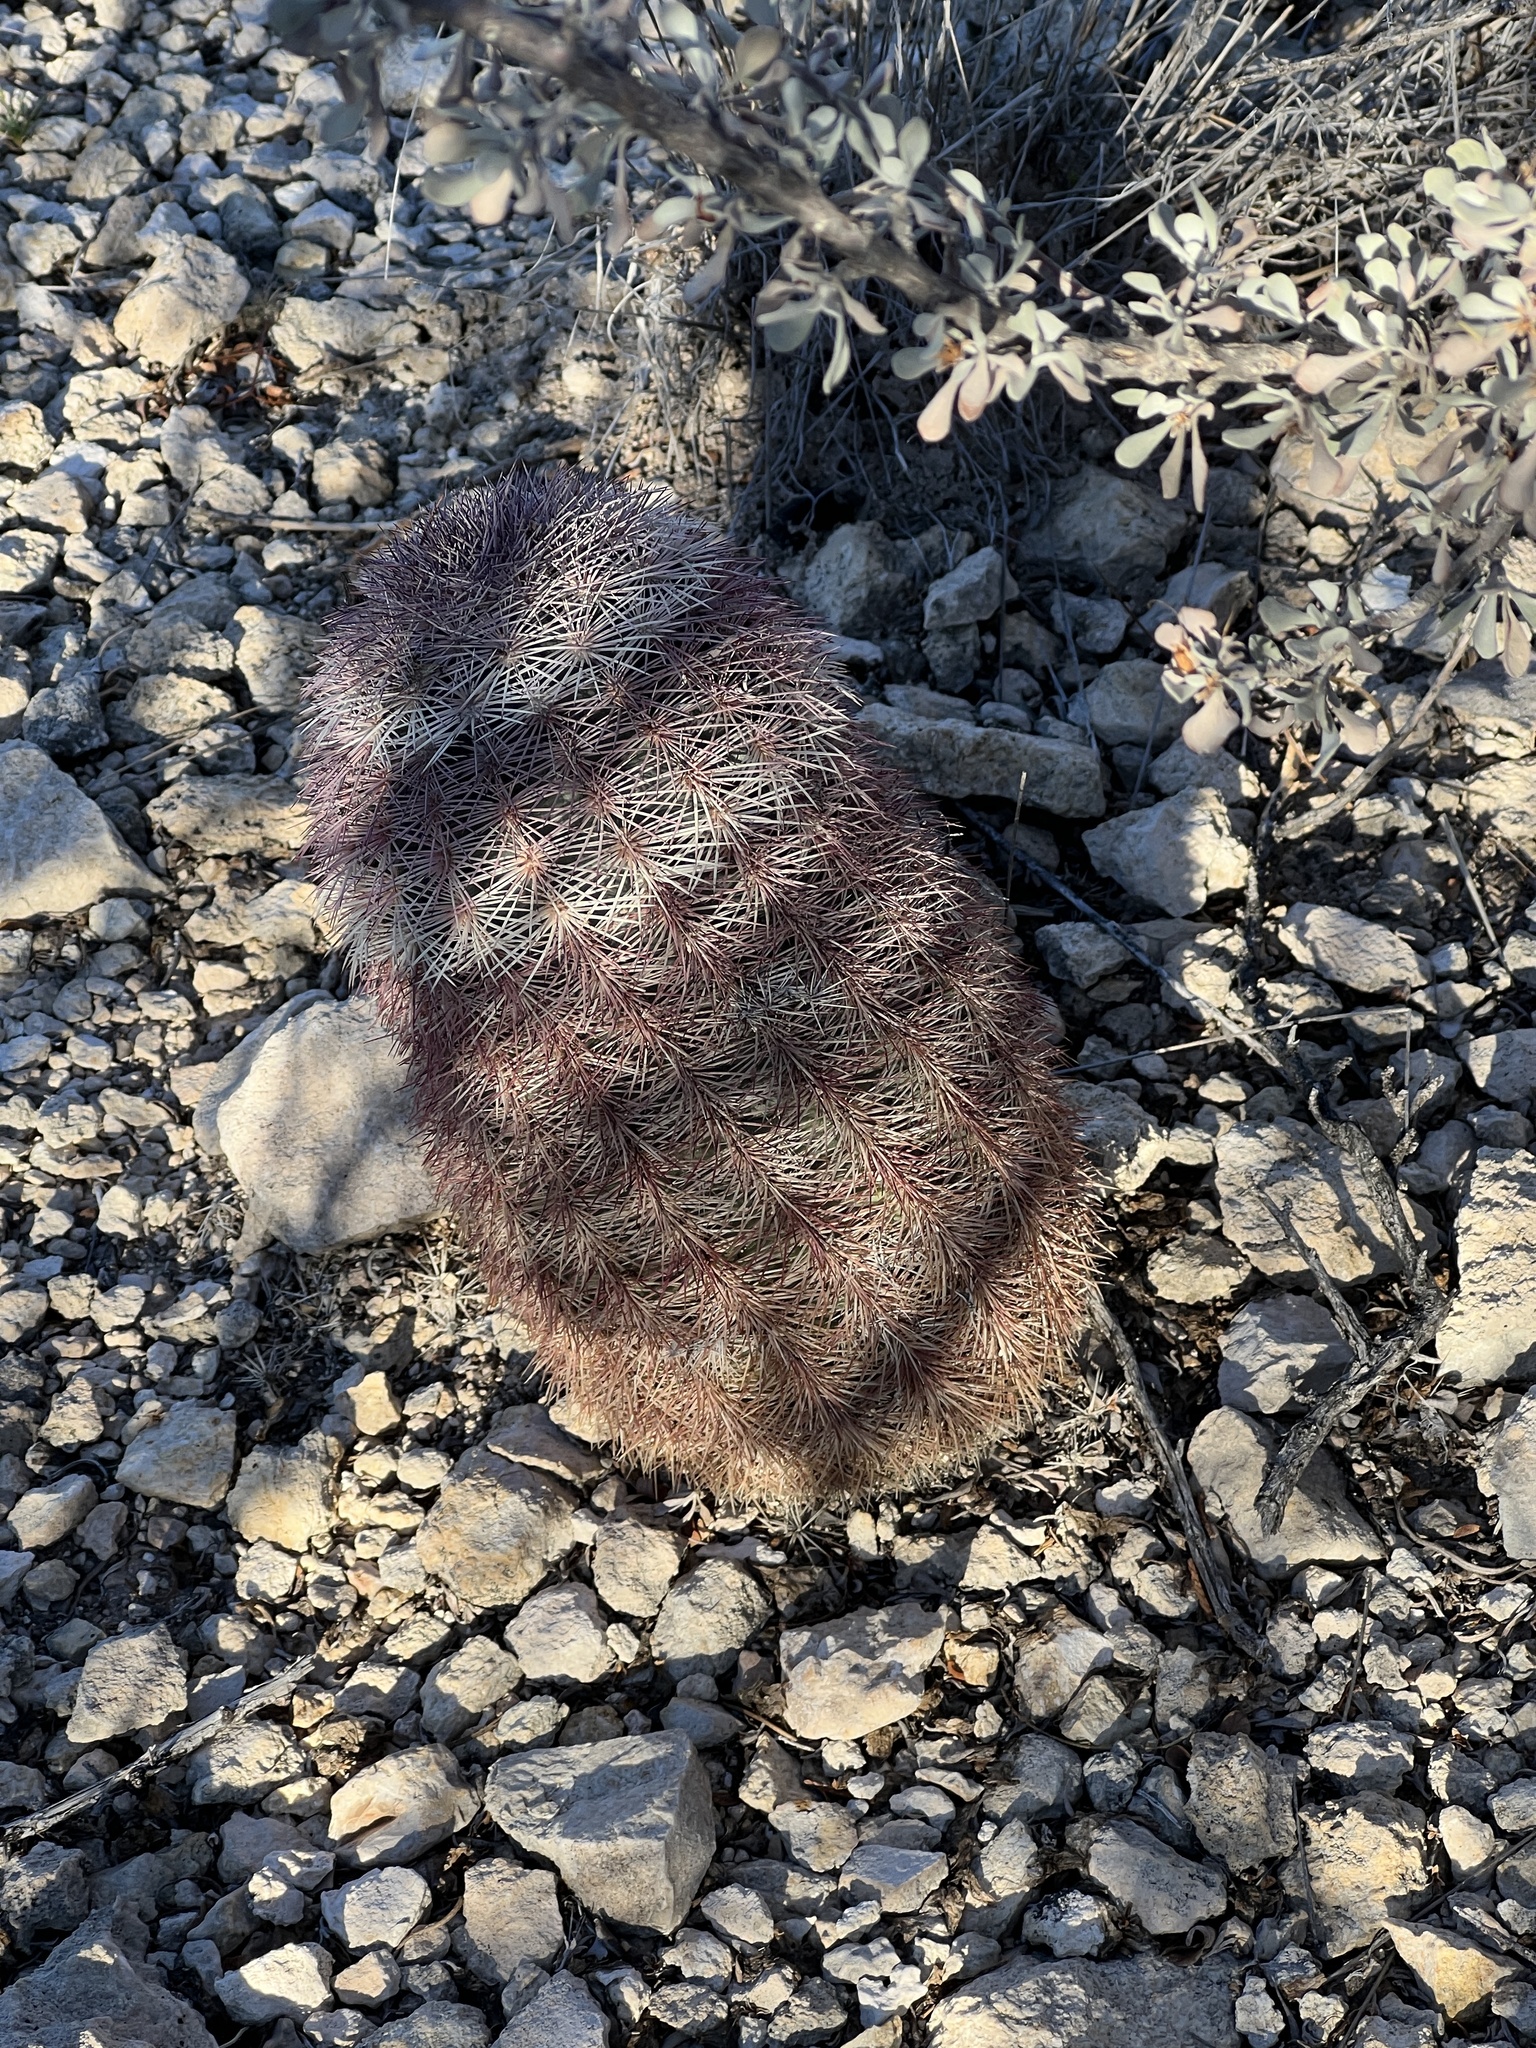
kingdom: Plantae
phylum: Tracheophyta
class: Magnoliopsida
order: Caryophyllales
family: Cactaceae
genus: Echinocereus
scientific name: Echinocereus dasyacanthus
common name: Spiny hedgehog cactus
